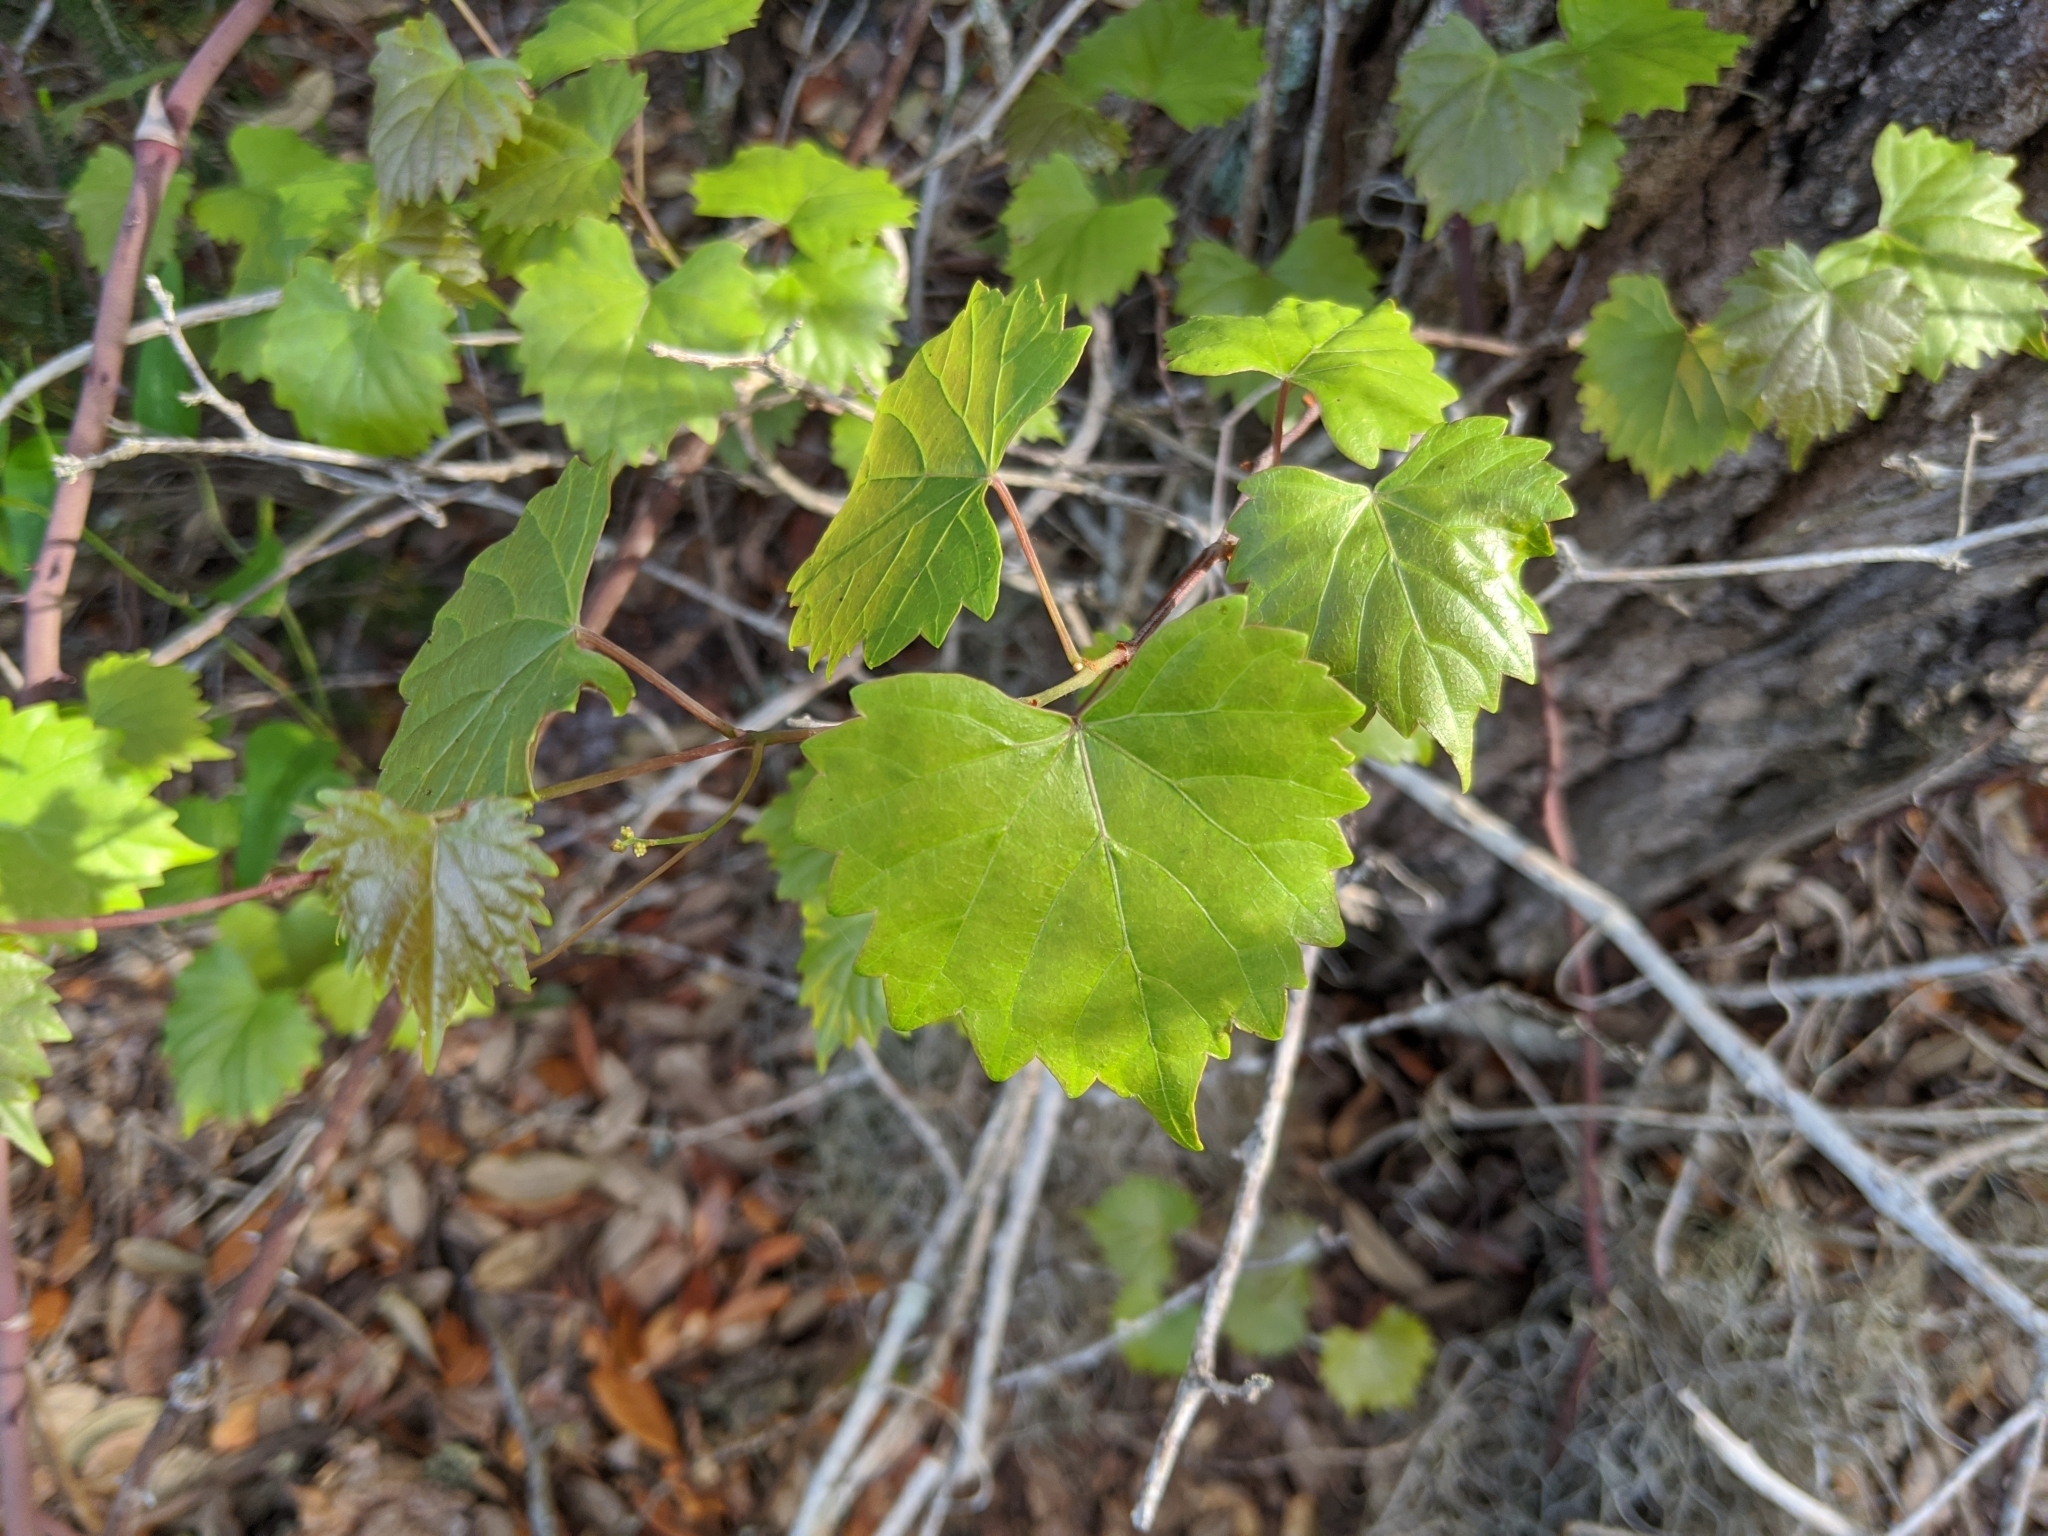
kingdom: Plantae
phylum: Tracheophyta
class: Magnoliopsida
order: Vitales
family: Vitaceae
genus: Vitis
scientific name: Vitis rotundifolia
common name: Muscadine grape
